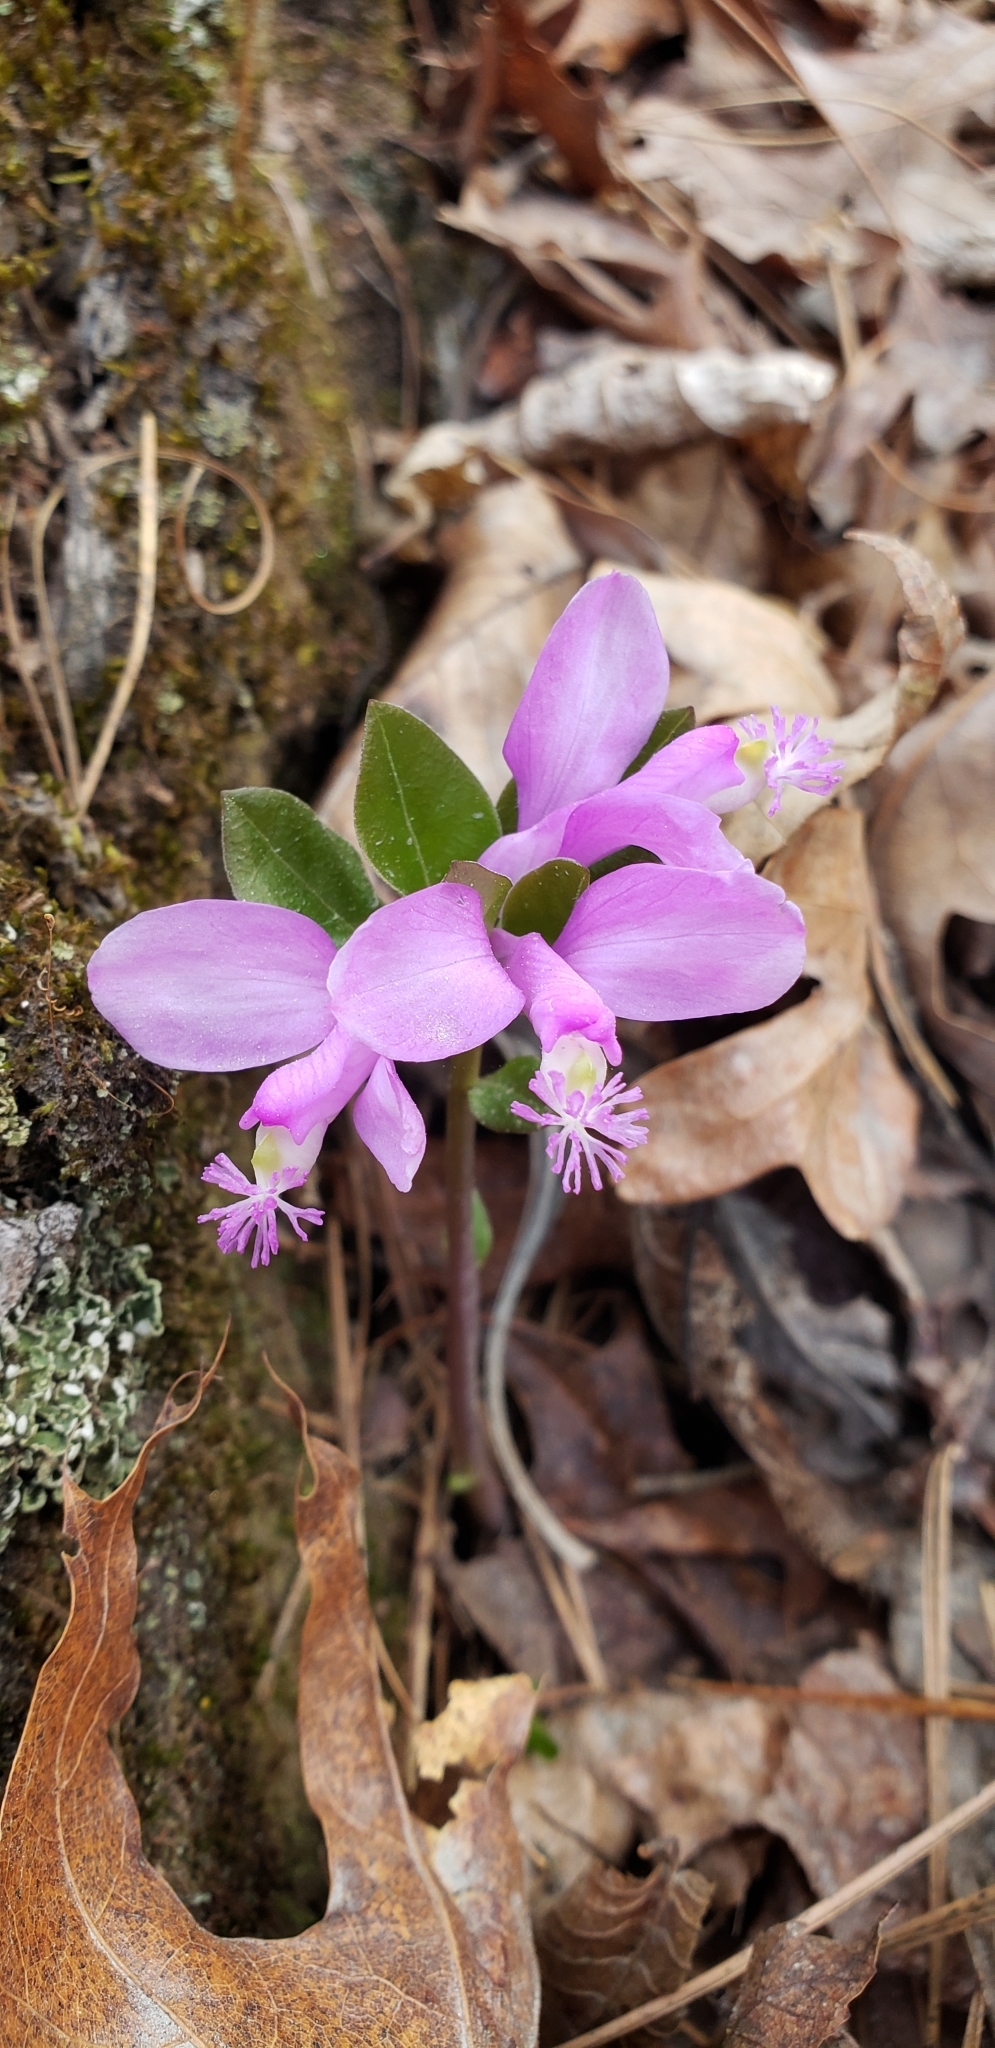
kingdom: Plantae
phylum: Tracheophyta
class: Magnoliopsida
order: Fabales
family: Polygalaceae
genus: Polygaloides
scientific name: Polygaloides paucifolia
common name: Bird-on-the-wing
